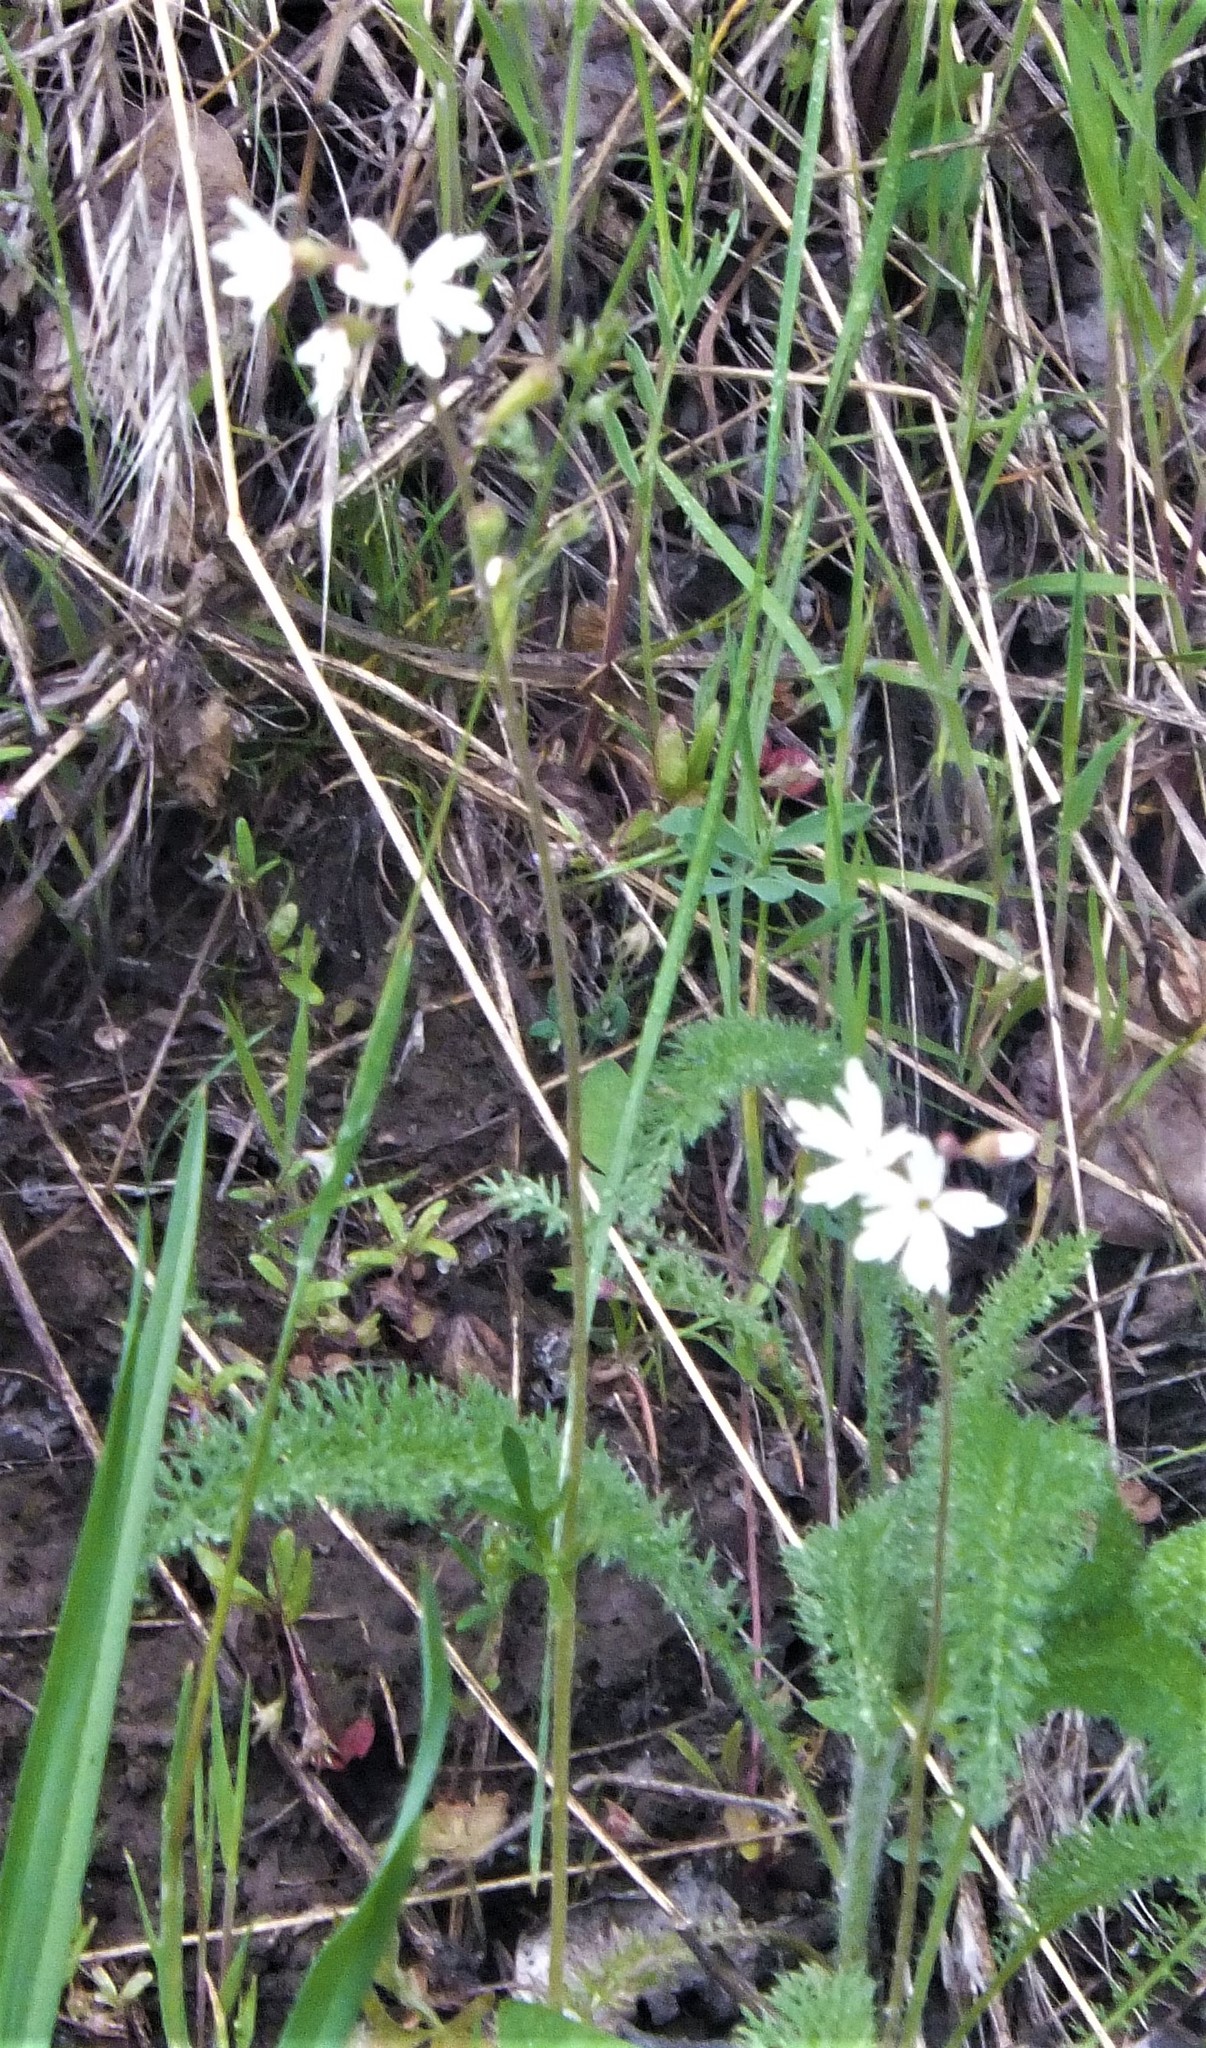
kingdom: Plantae
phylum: Tracheophyta
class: Magnoliopsida
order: Saxifragales
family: Saxifragaceae
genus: Lithophragma
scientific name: Lithophragma parviflorum
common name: Small-flowered fringe-cup
